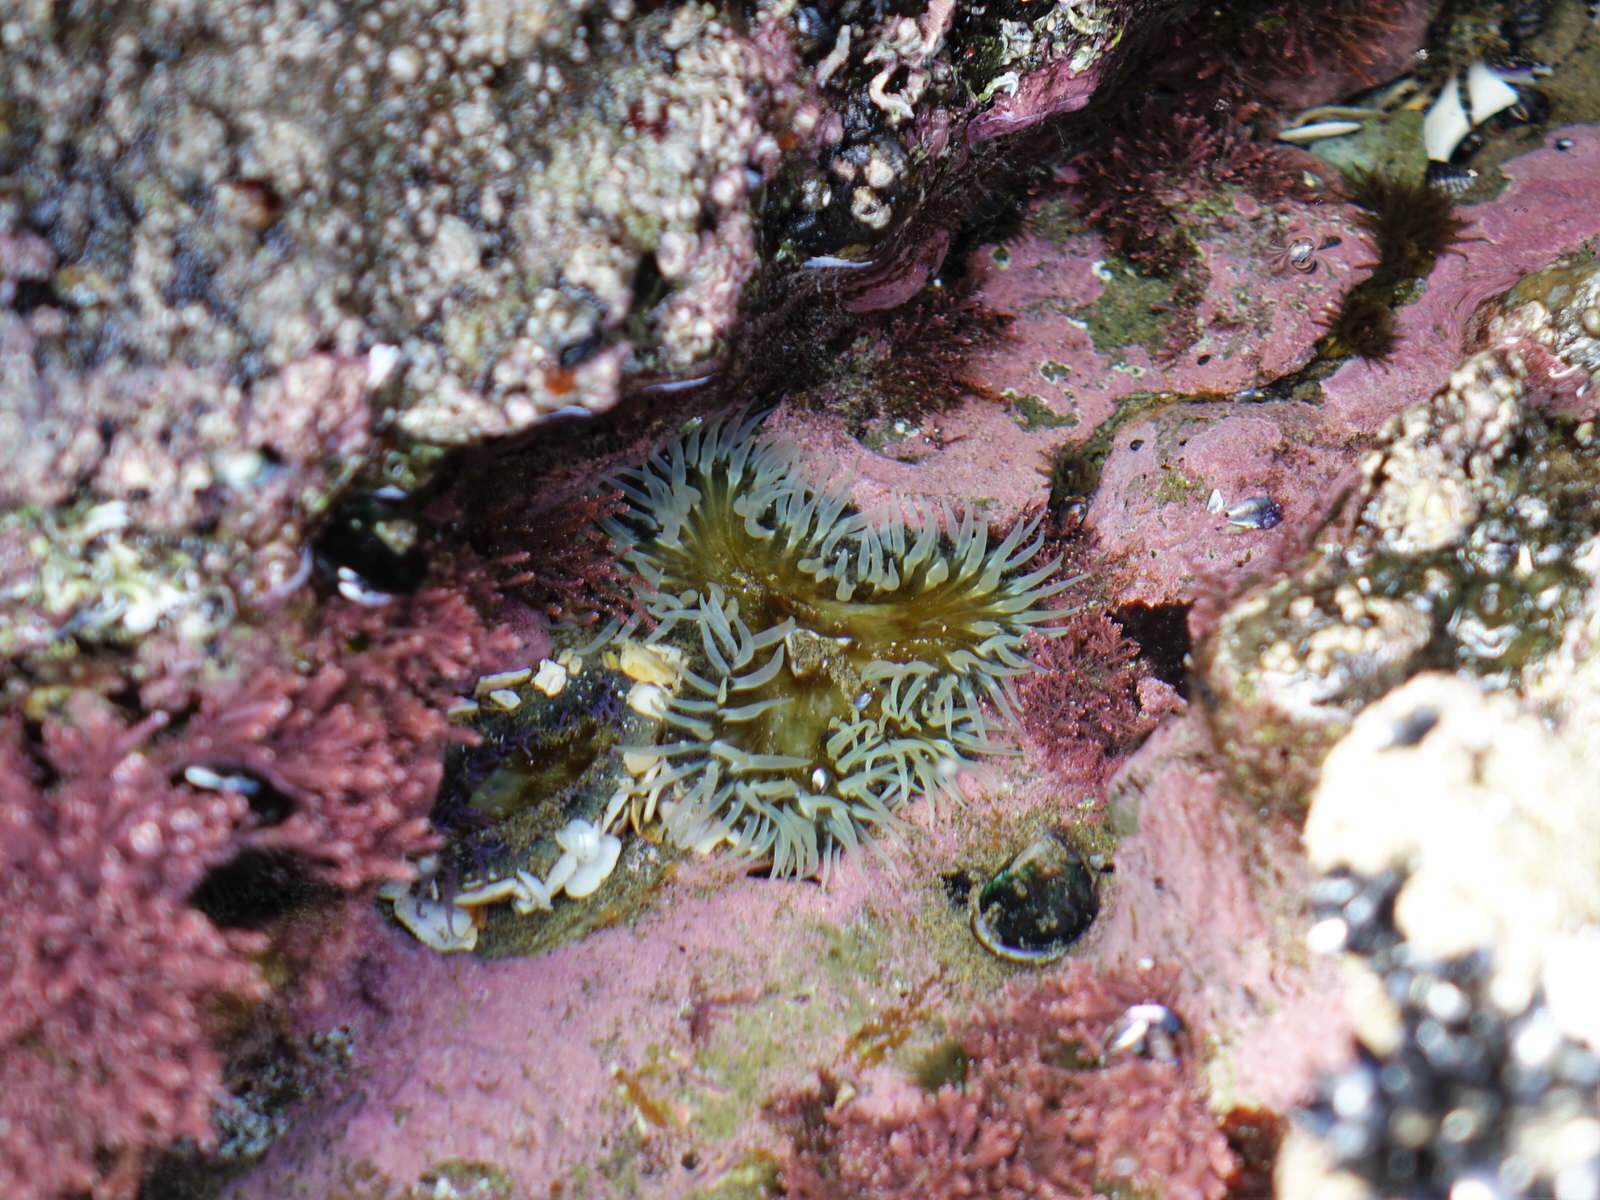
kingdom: Animalia
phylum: Cnidaria
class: Anthozoa
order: Actiniaria
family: Actiniidae
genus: Oulactis
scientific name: Oulactis magna
